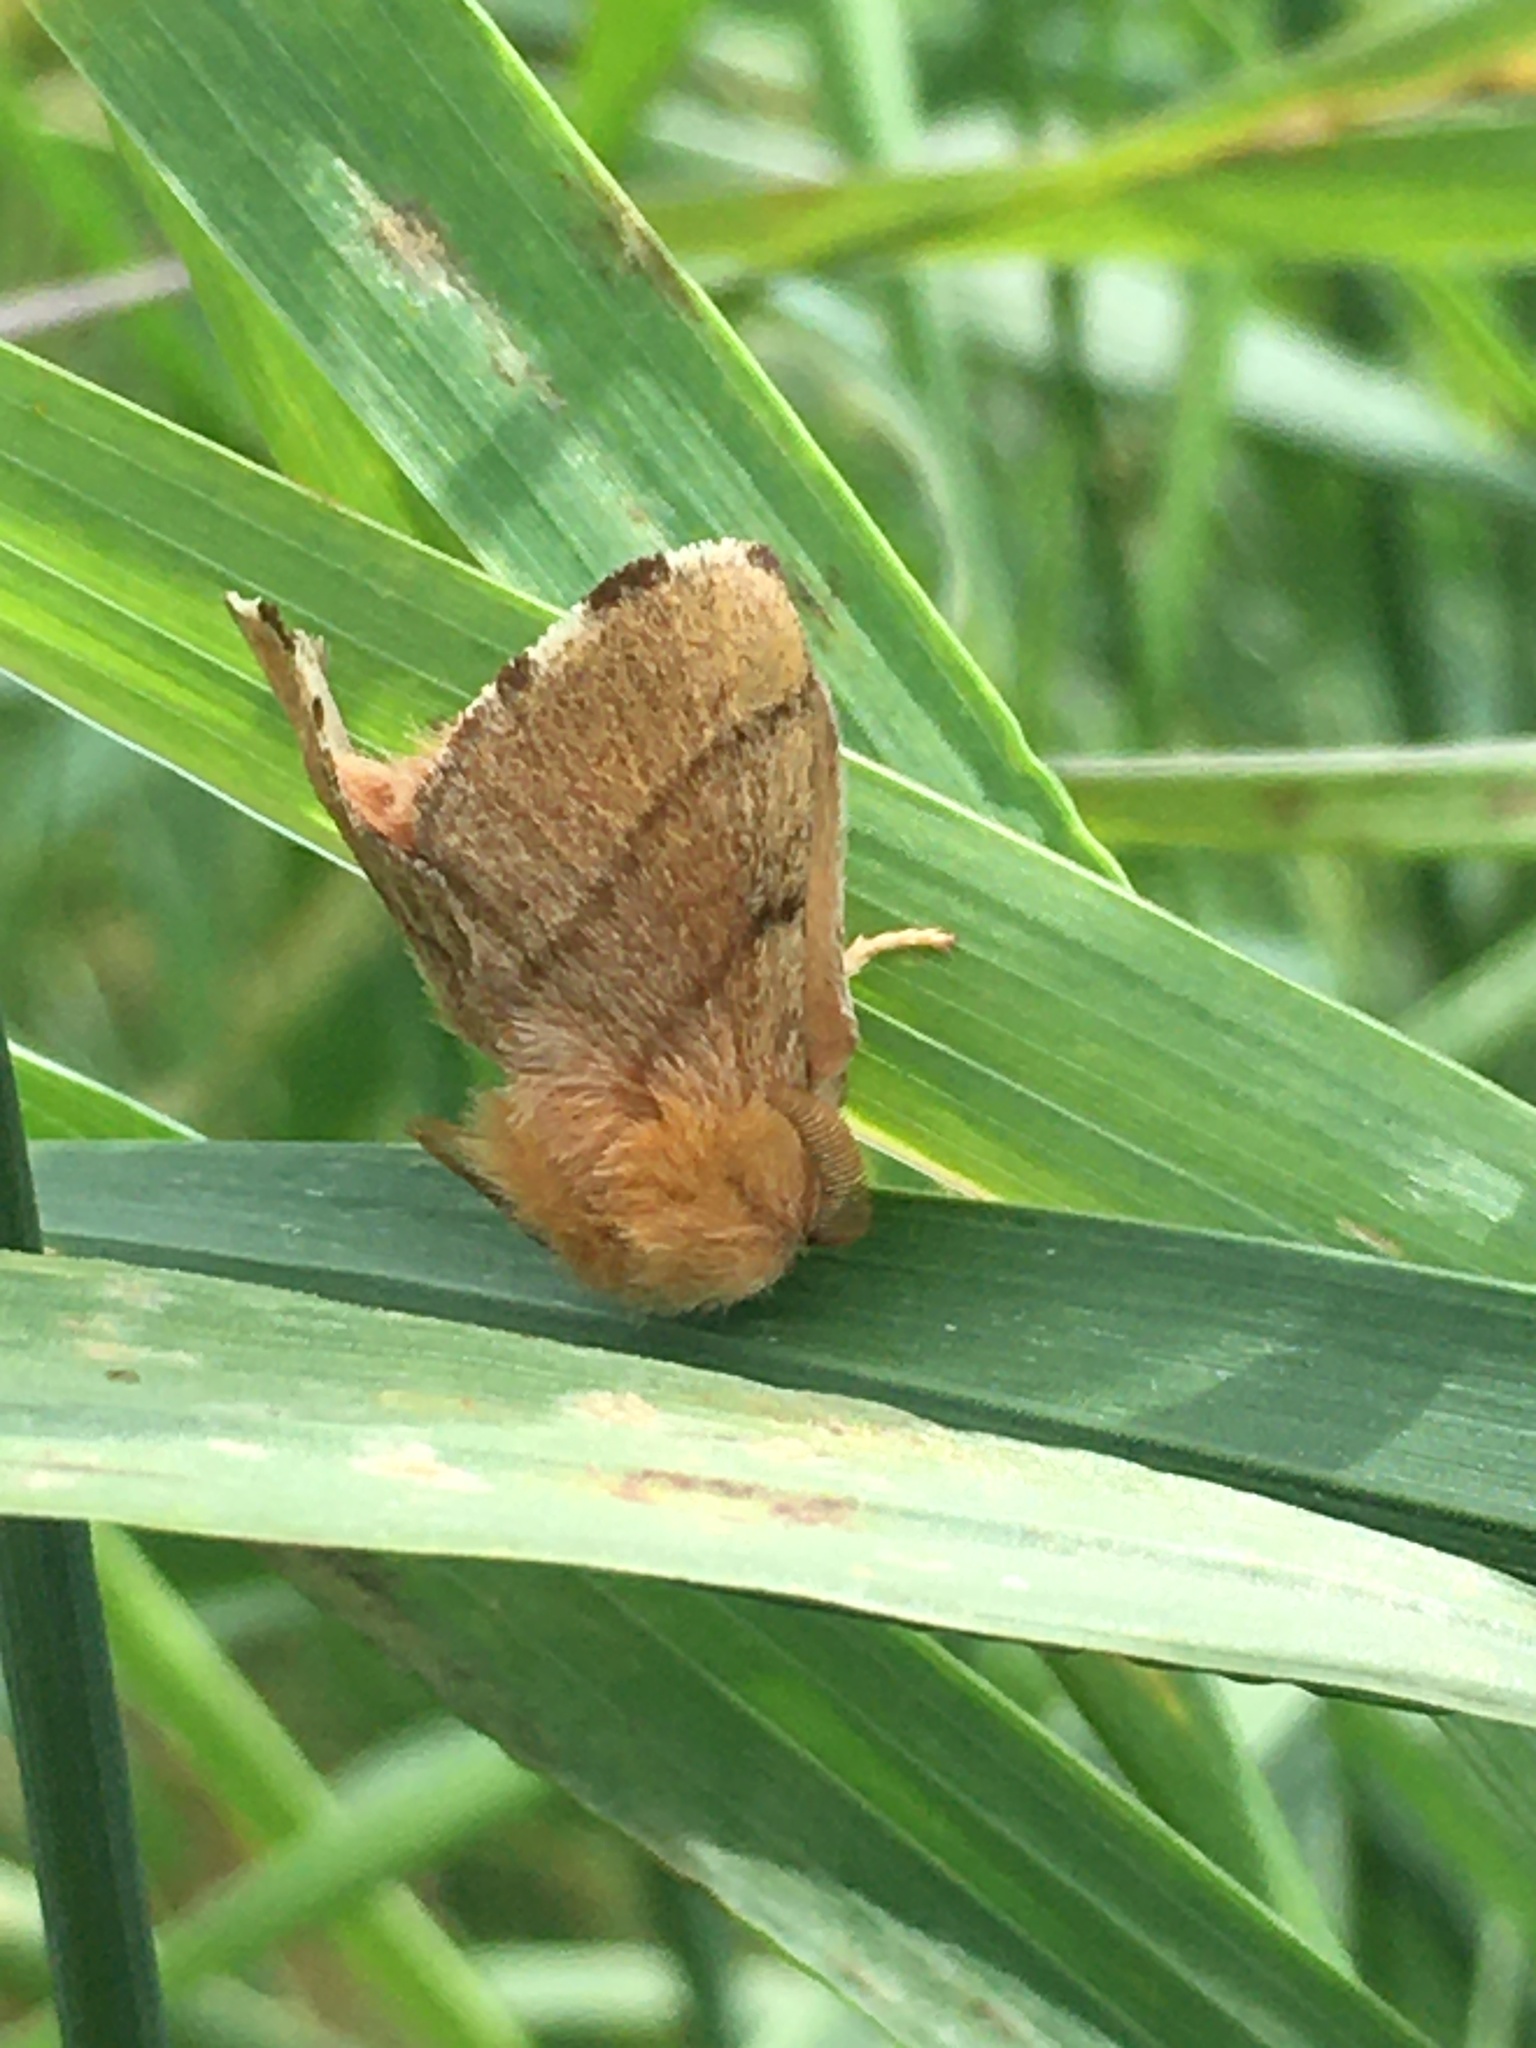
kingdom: Animalia
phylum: Arthropoda
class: Insecta
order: Lepidoptera
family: Lasiocampidae
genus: Malacosoma
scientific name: Malacosoma disstria
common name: Forest tent caterpillar
